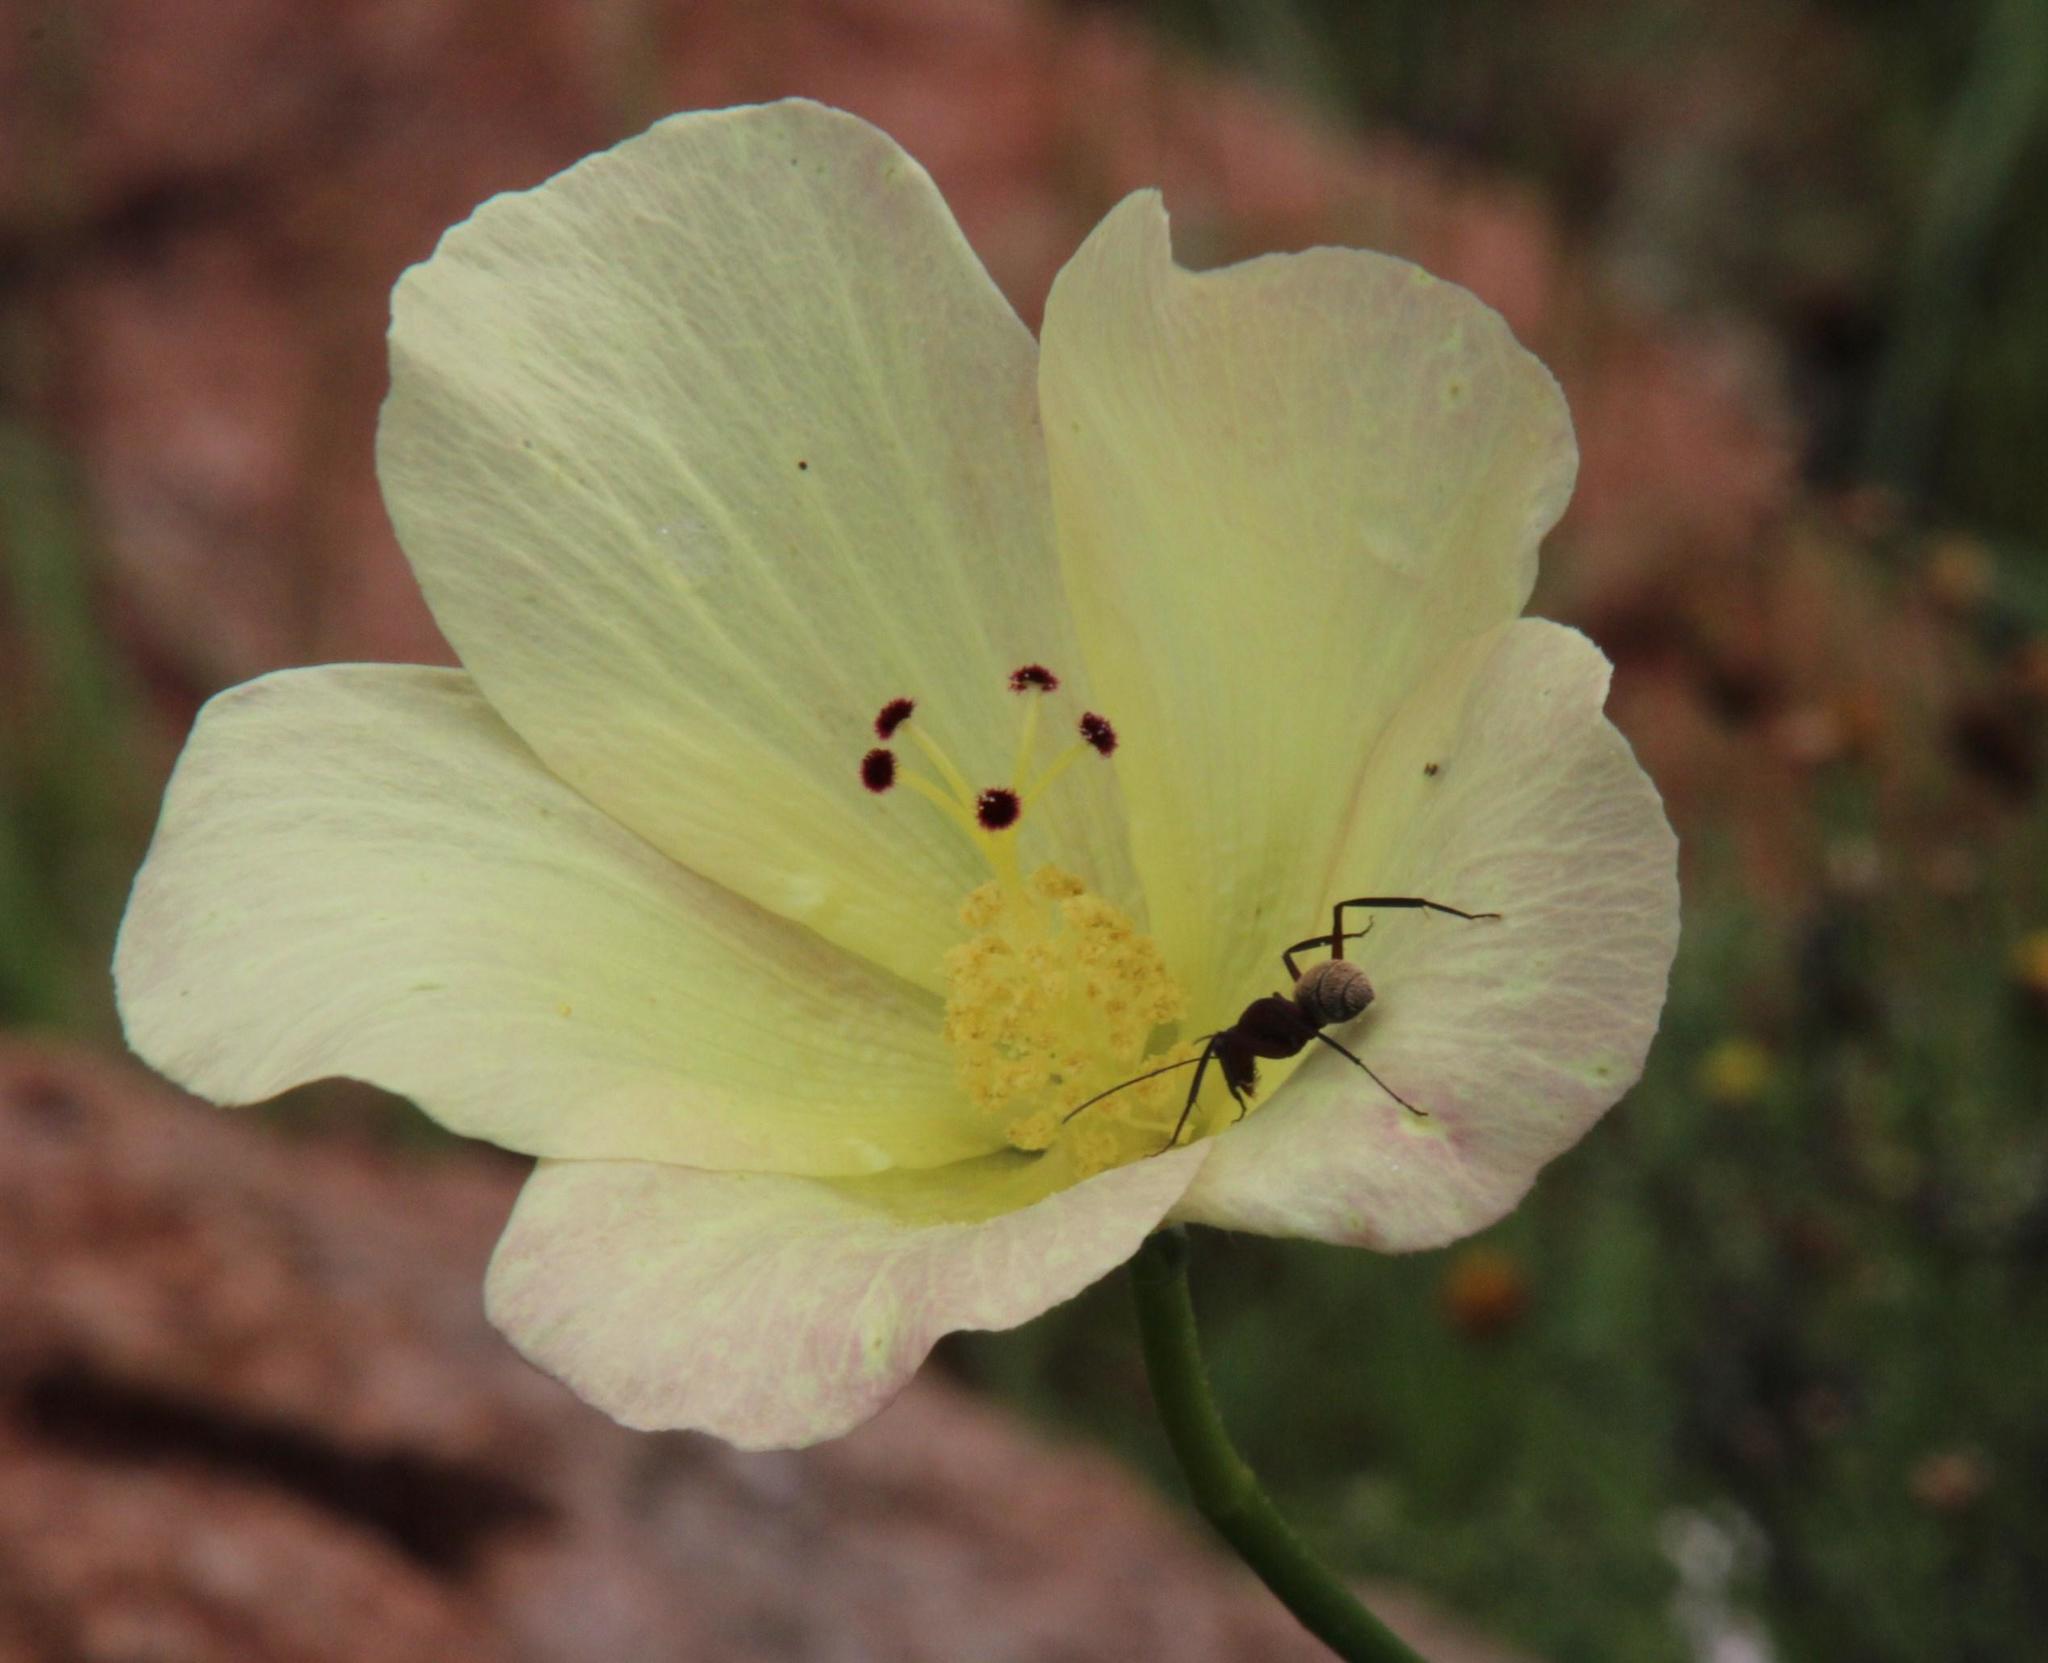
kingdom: Plantae
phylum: Tracheophyta
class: Magnoliopsida
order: Malvales
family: Malvaceae
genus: Hibiscus
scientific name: Hibiscus pusillus
